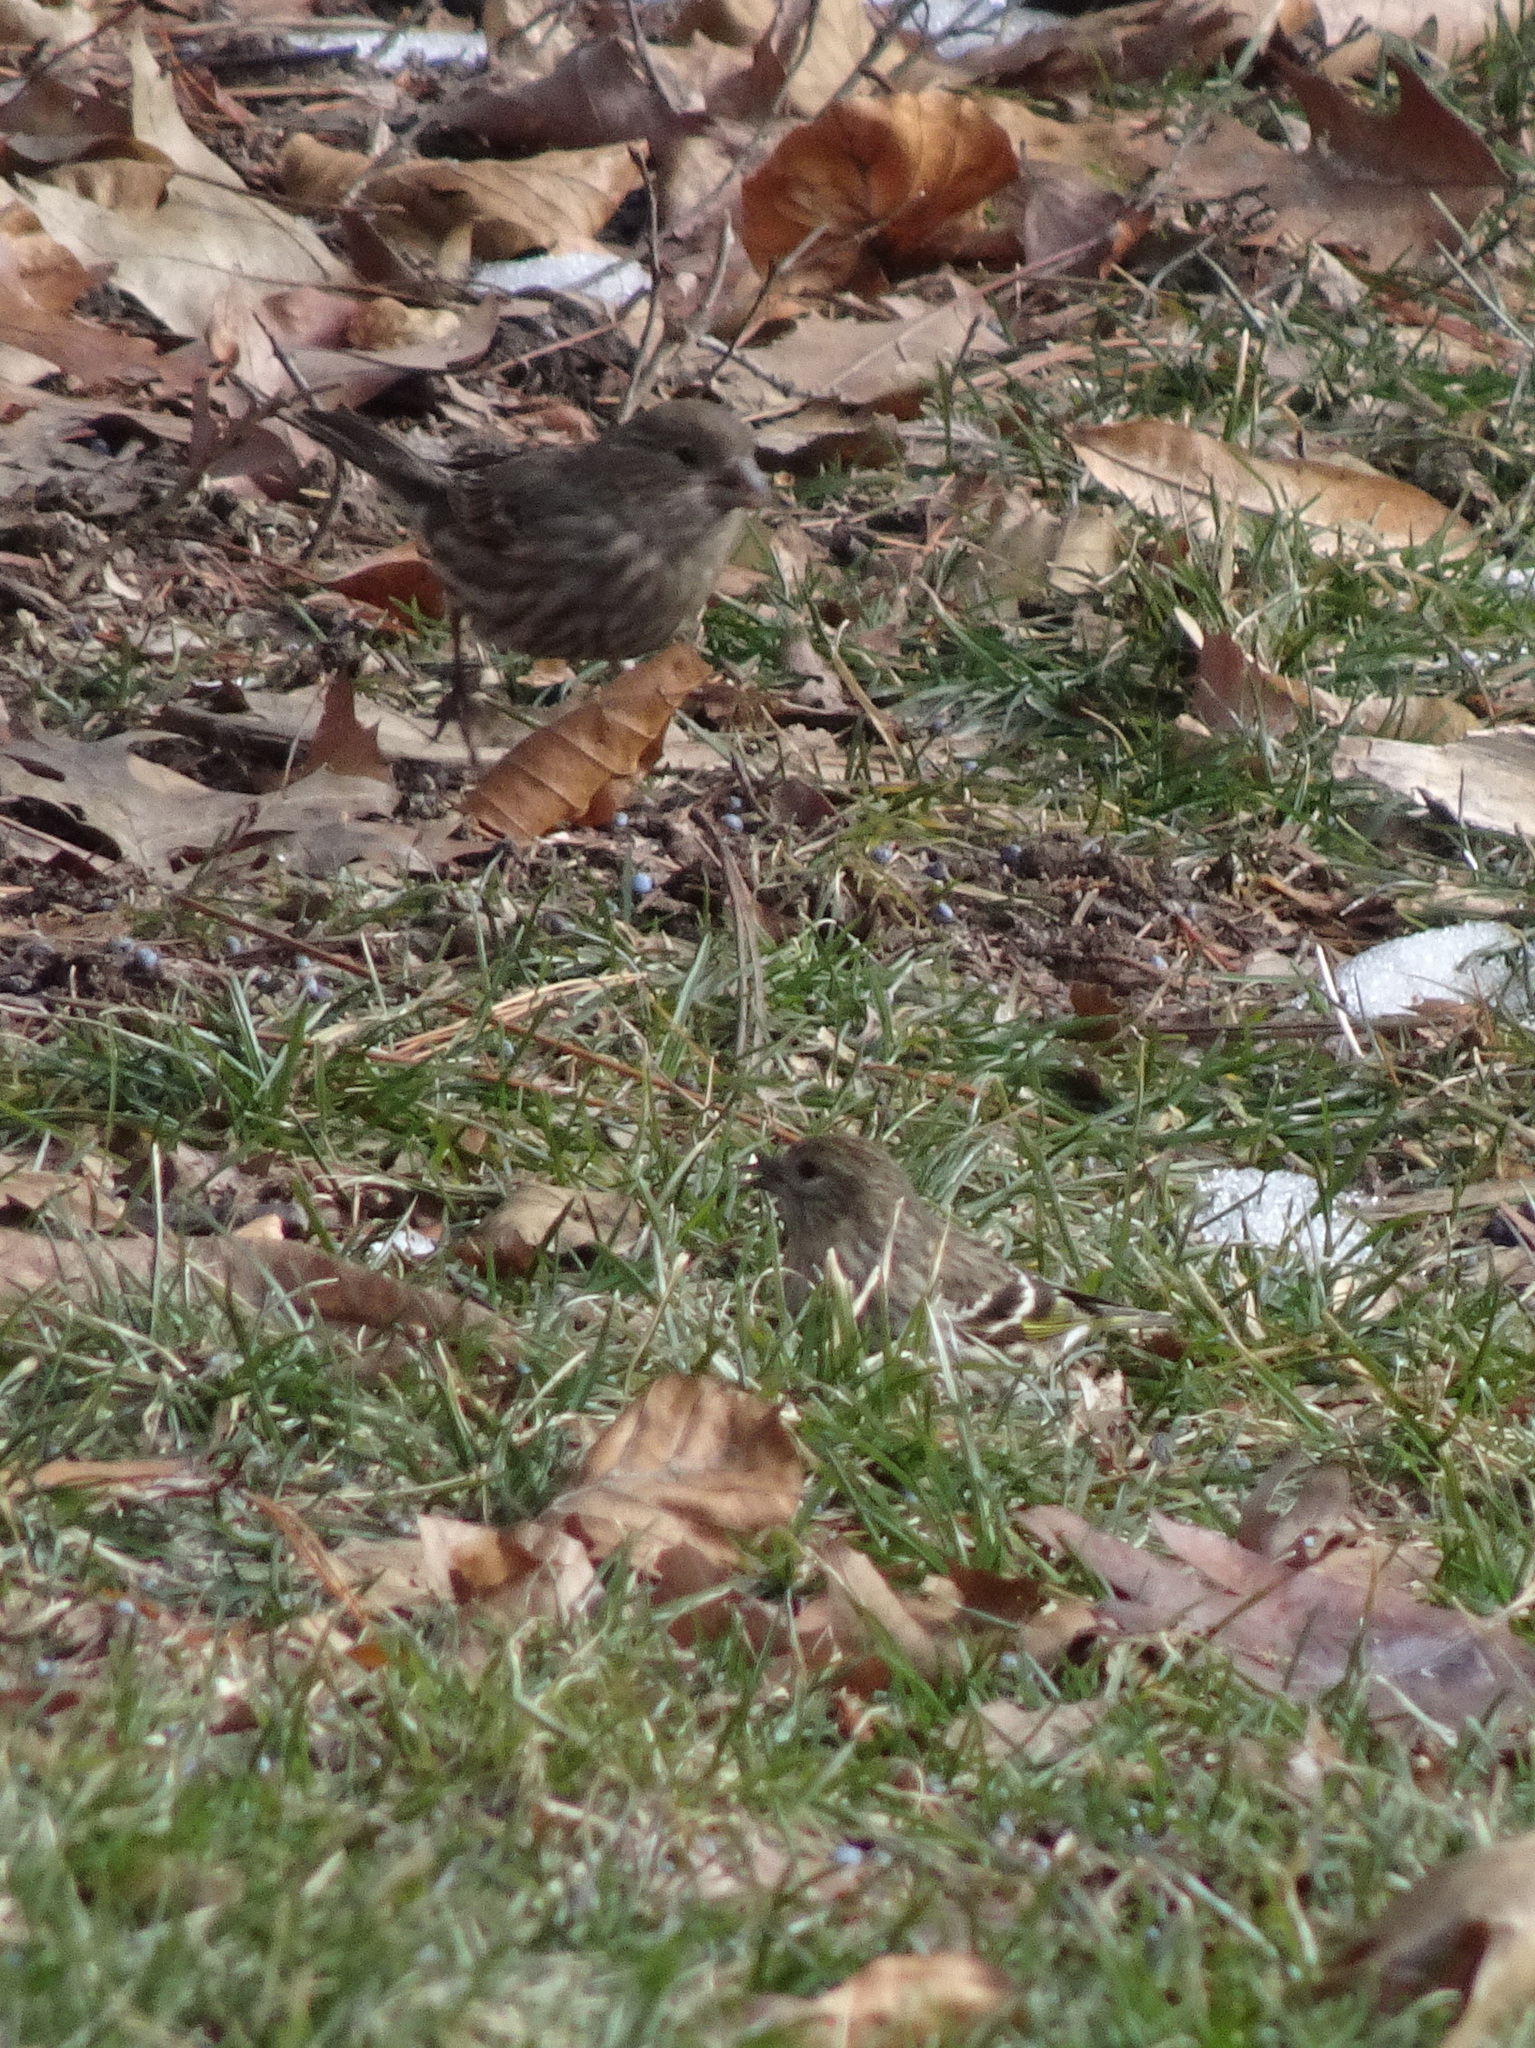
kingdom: Animalia
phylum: Chordata
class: Aves
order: Passeriformes
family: Fringillidae
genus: Spinus
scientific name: Spinus pinus
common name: Pine siskin
